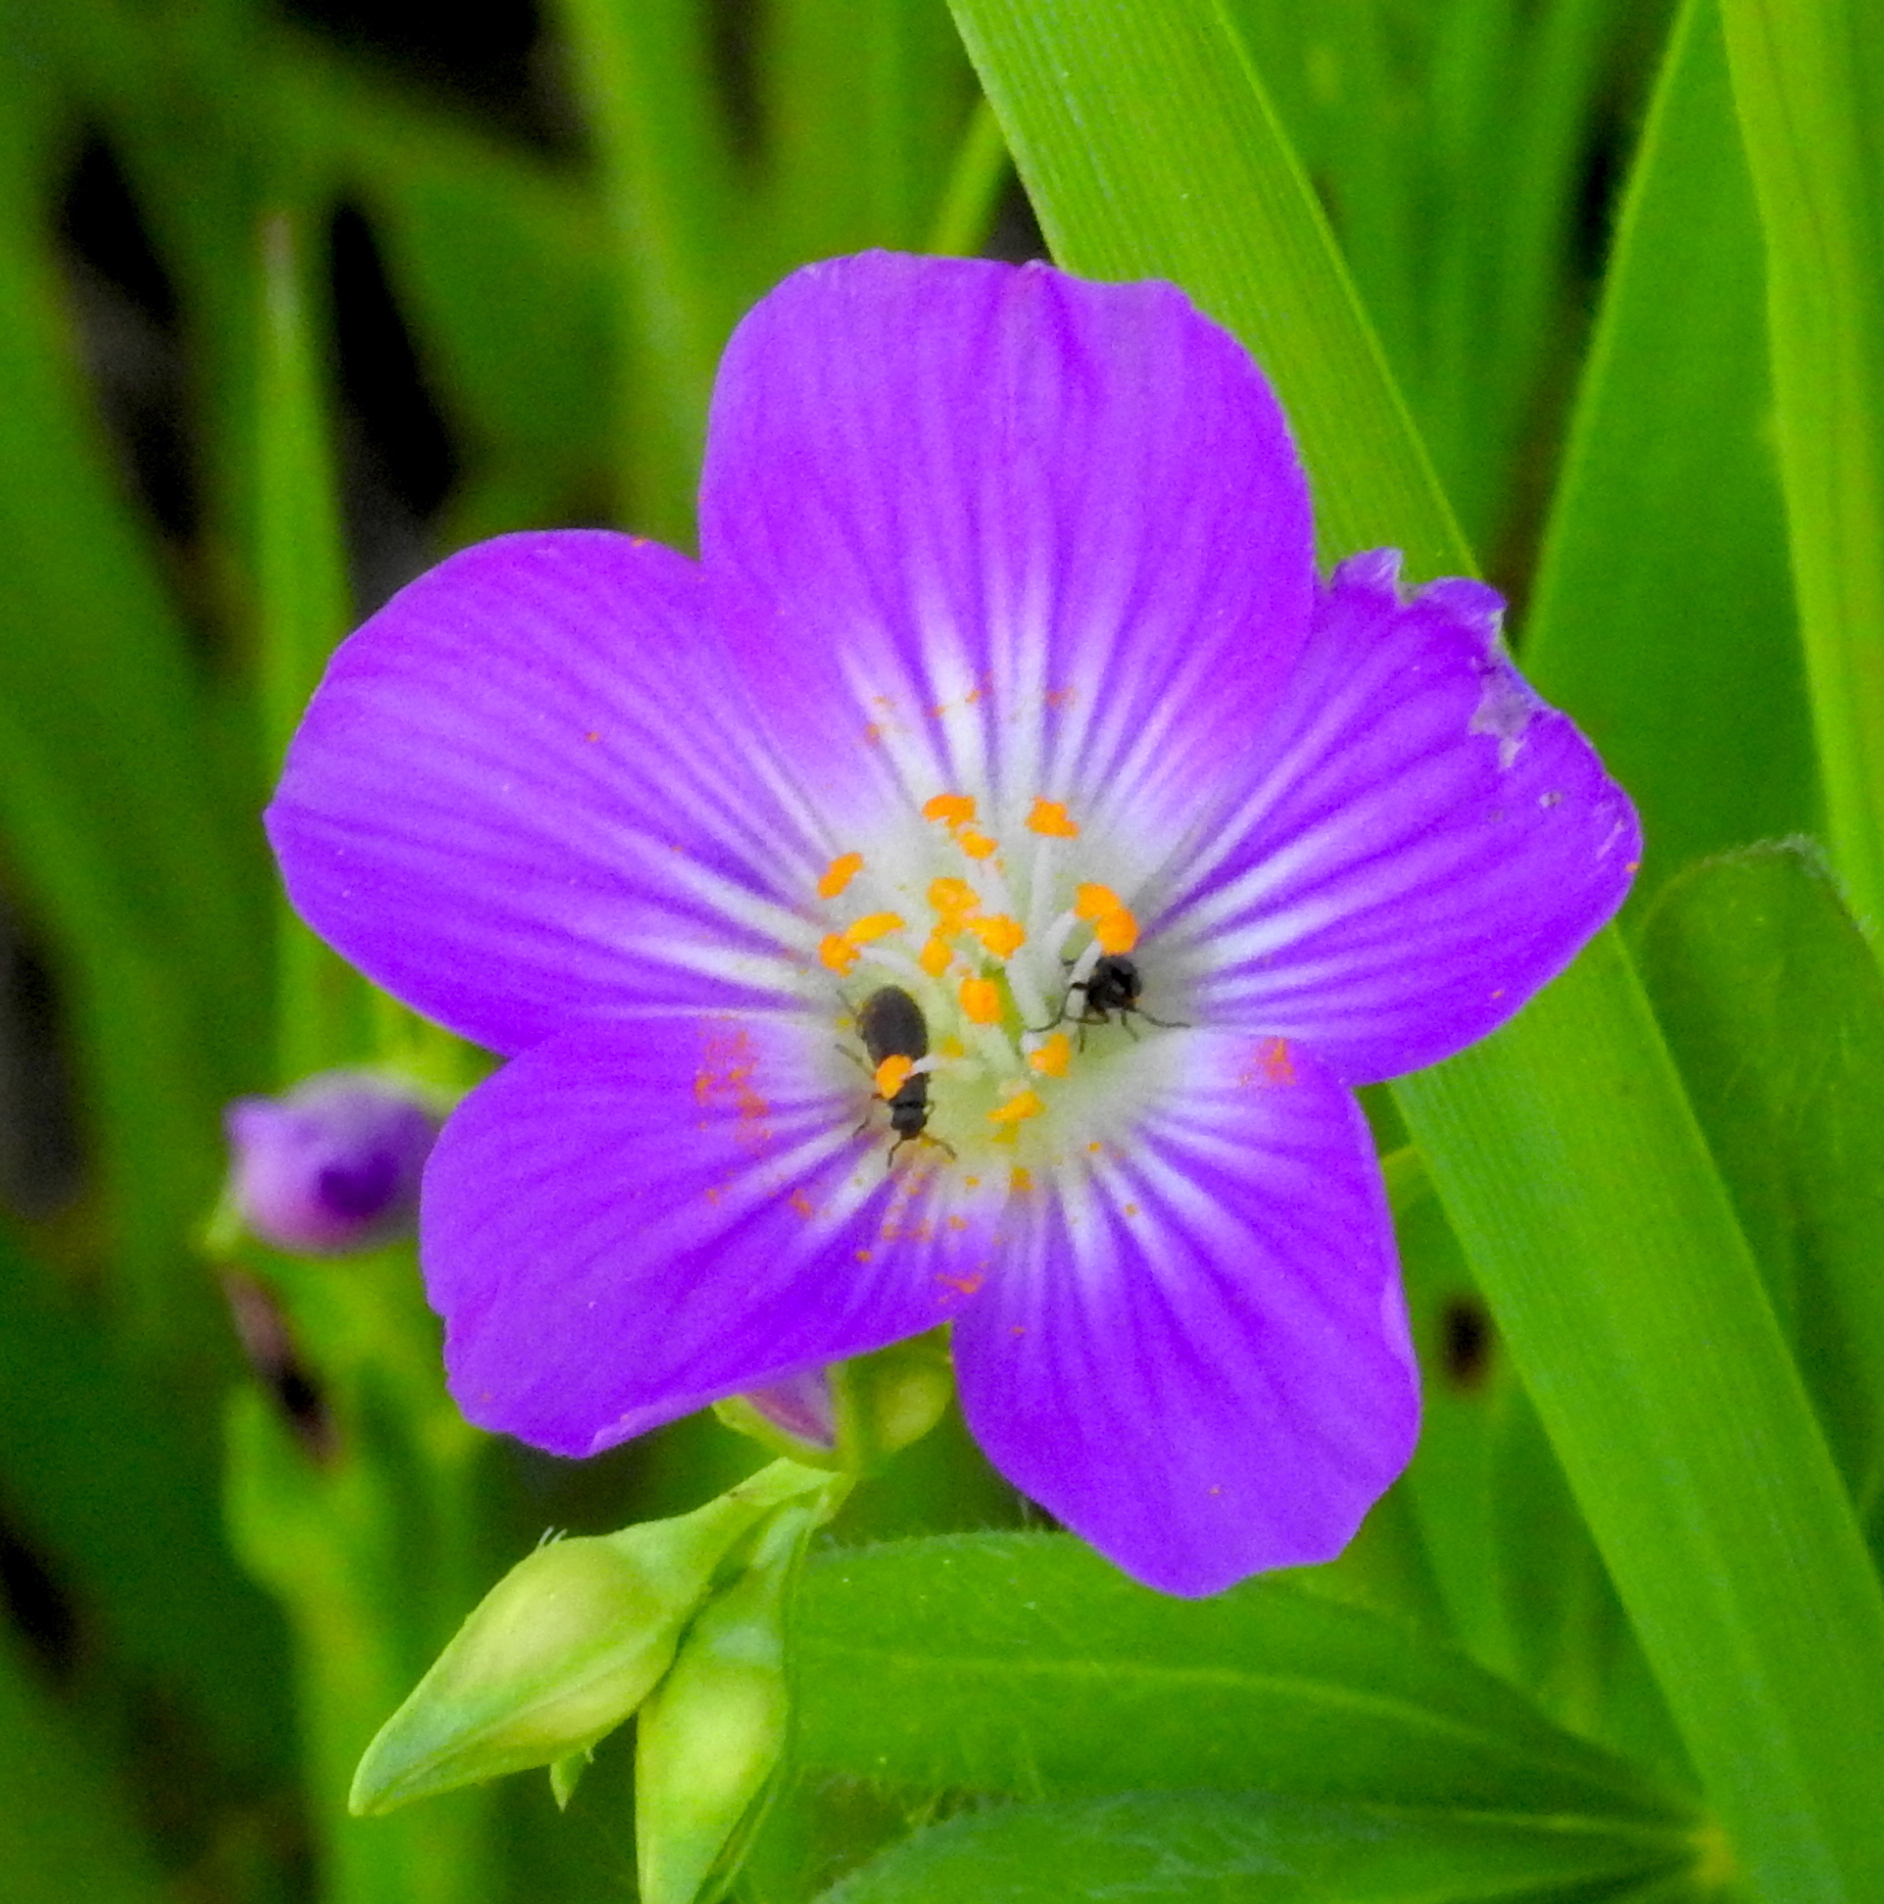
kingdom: Plantae
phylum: Tracheophyta
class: Magnoliopsida
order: Caryophyllales
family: Montiaceae
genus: Calandrinia
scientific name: Calandrinia menziesii
